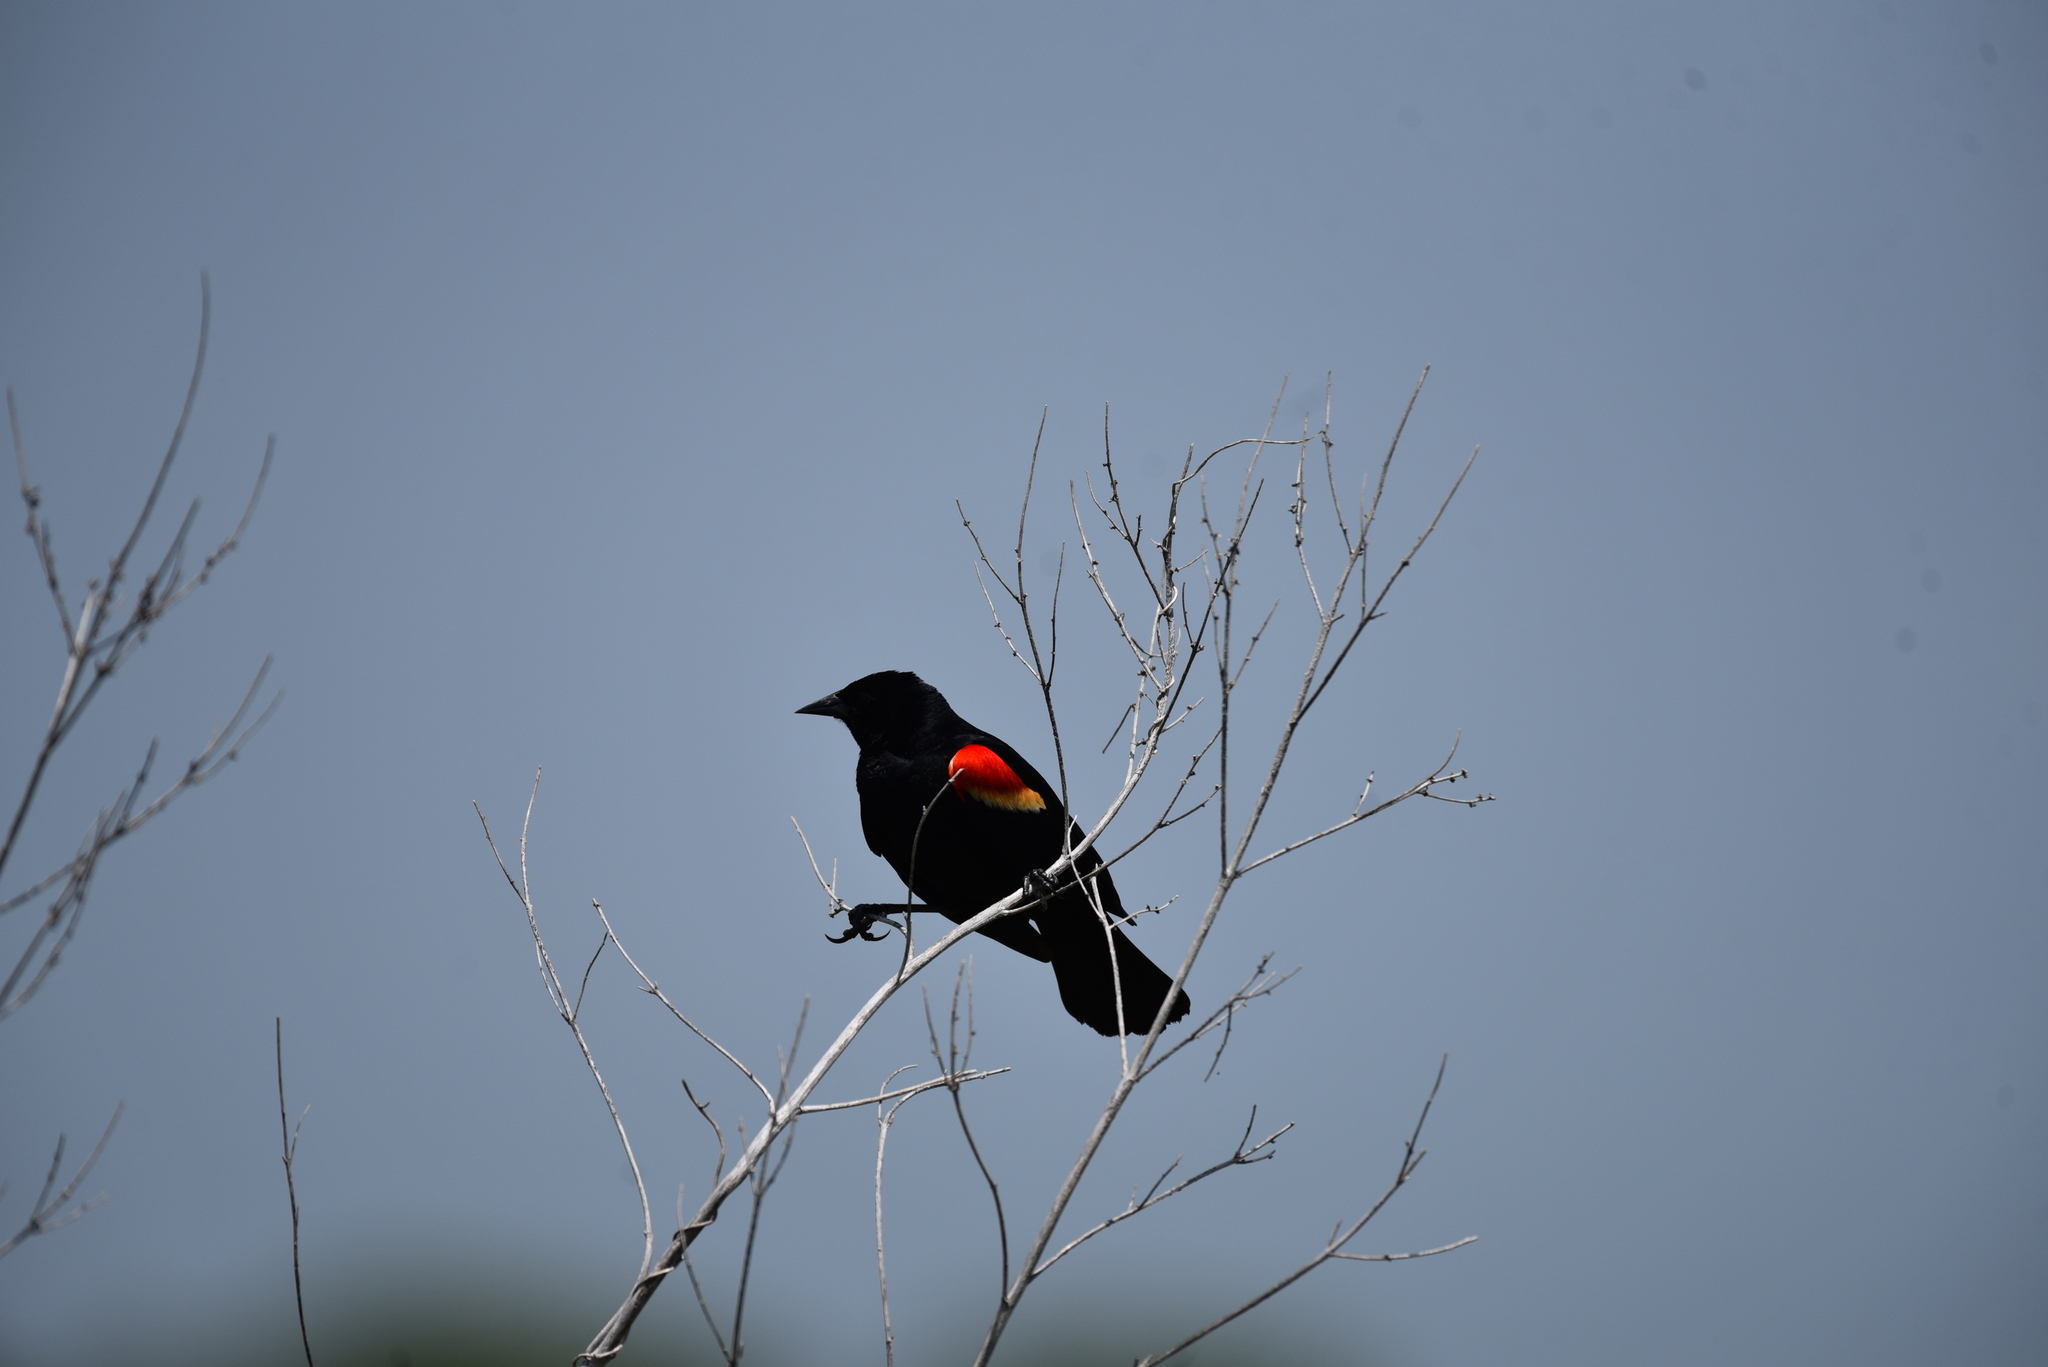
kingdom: Animalia
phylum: Chordata
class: Aves
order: Passeriformes
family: Icteridae
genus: Agelaius
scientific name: Agelaius phoeniceus
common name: Red-winged blackbird
